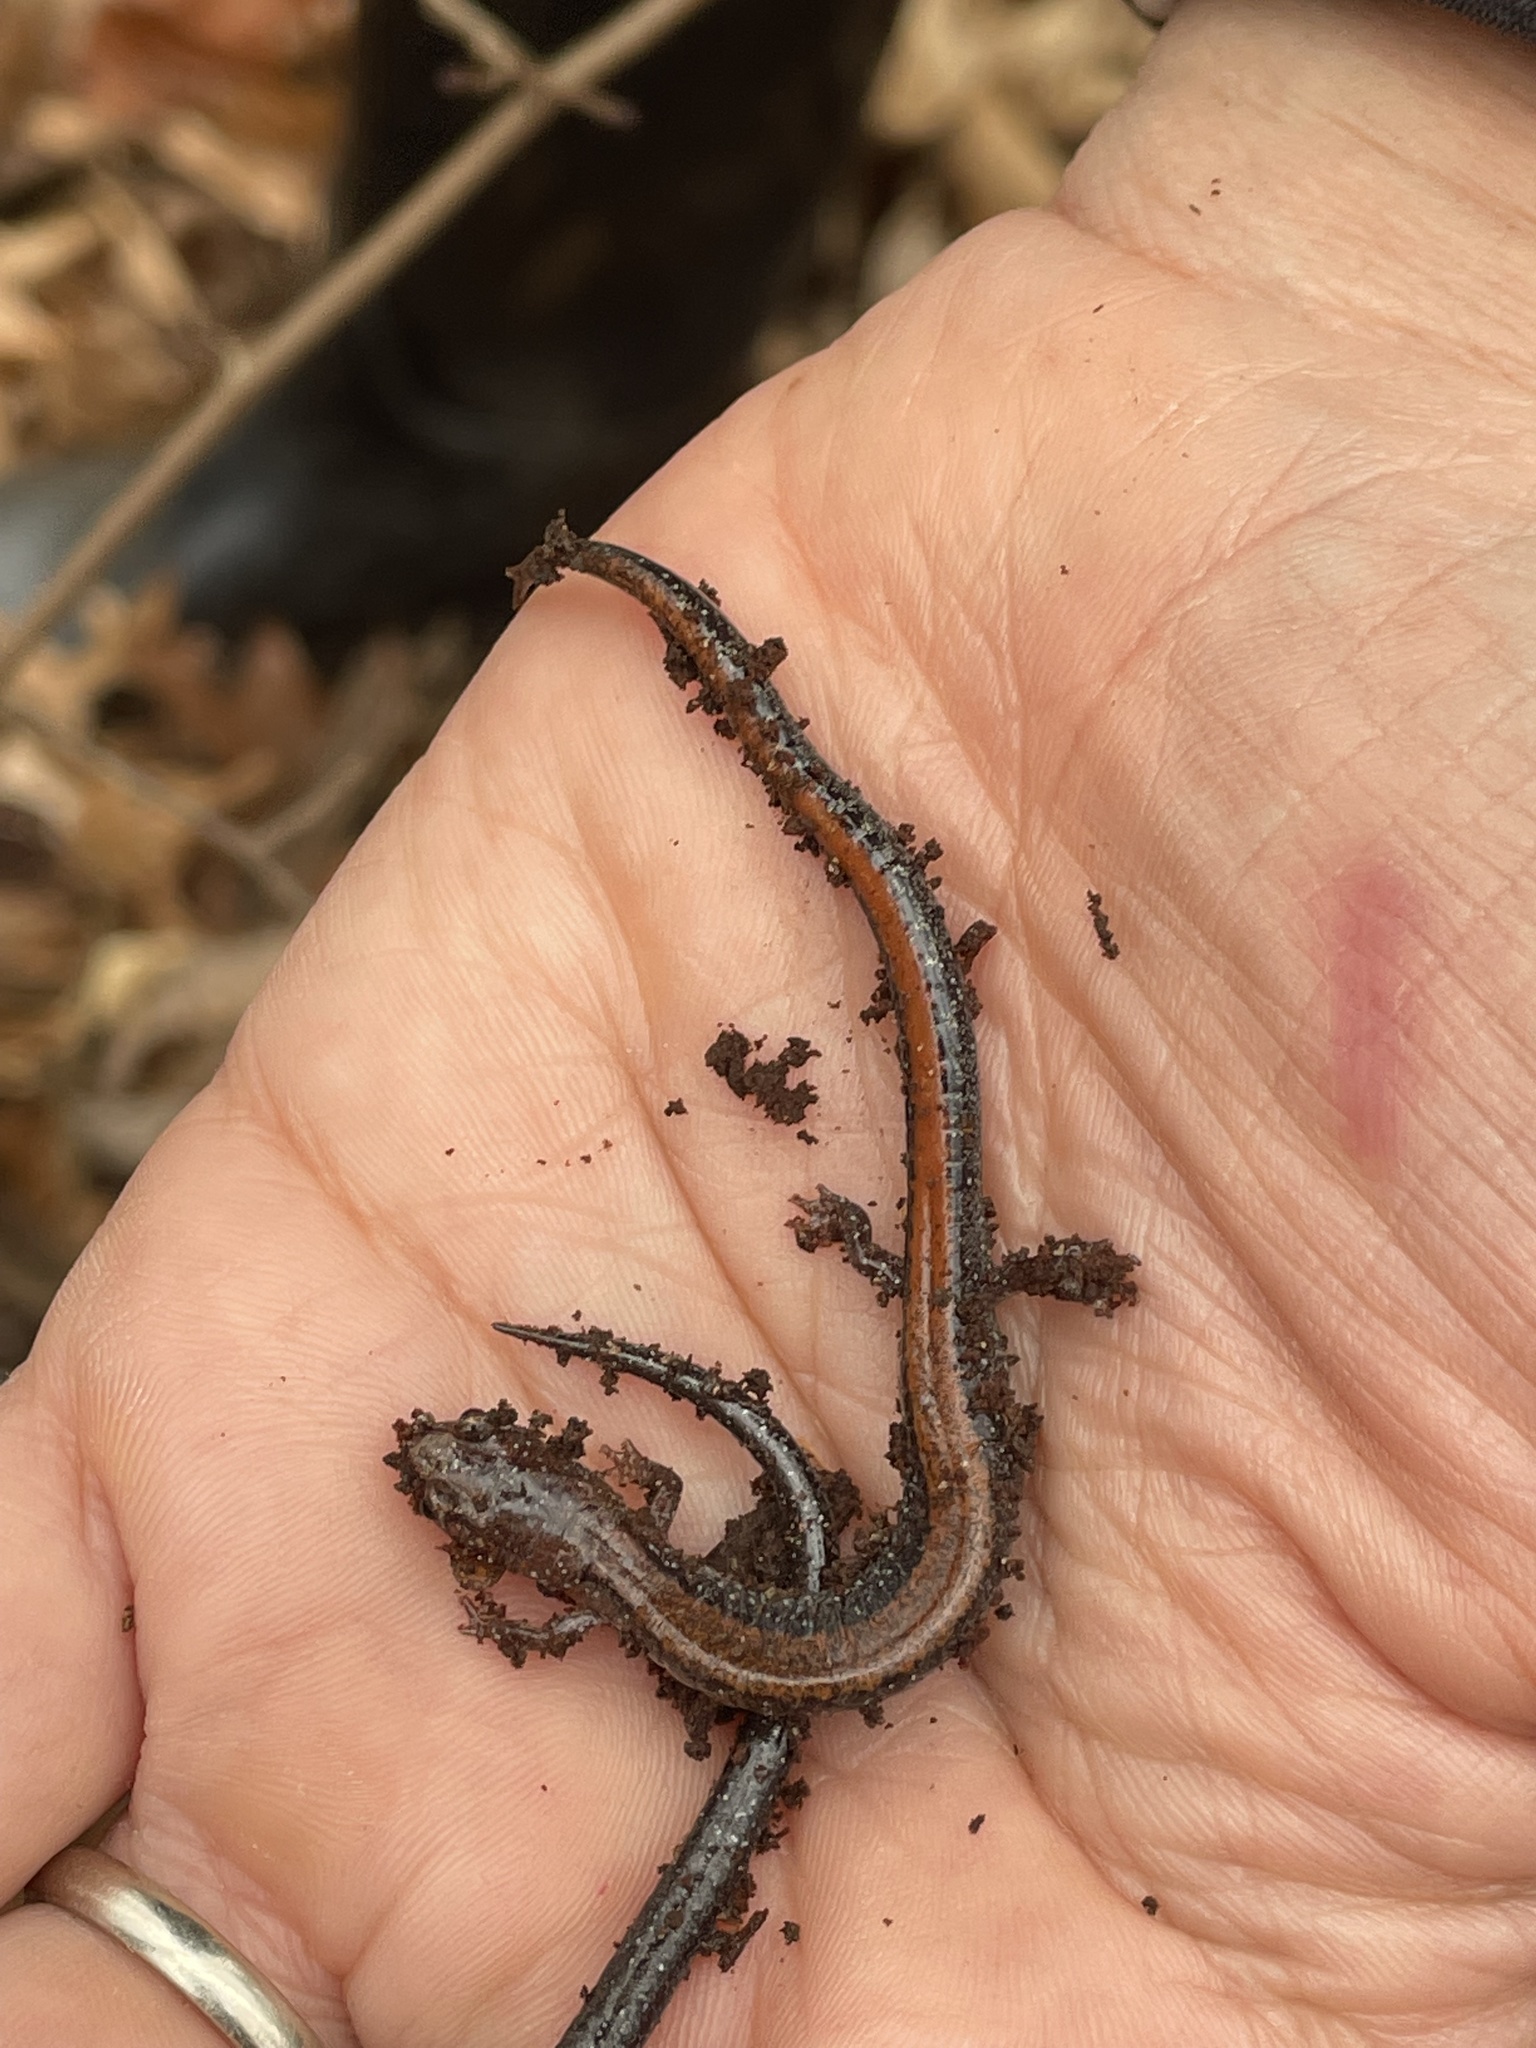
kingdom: Animalia
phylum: Chordata
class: Amphibia
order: Caudata
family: Plethodontidae
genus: Plethodon
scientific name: Plethodon cinereus
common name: Redback salamander
